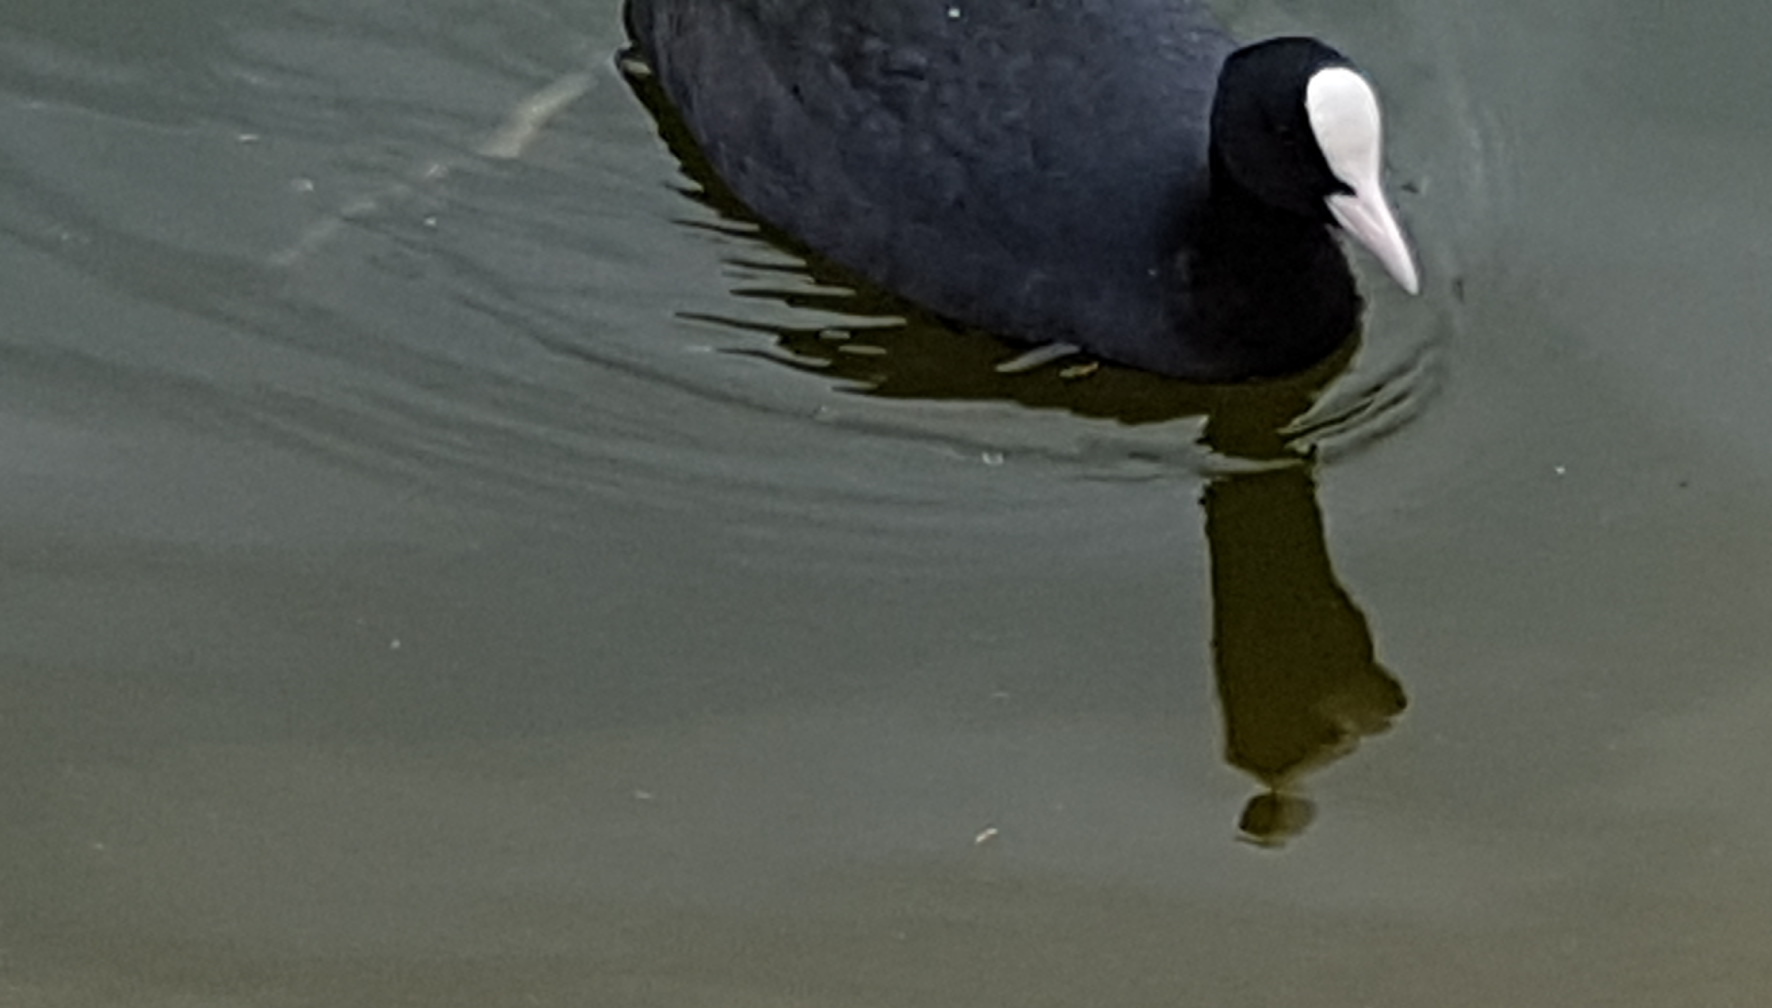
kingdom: Animalia
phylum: Chordata
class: Aves
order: Gruiformes
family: Rallidae
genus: Fulica
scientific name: Fulica atra
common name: Eurasian coot
